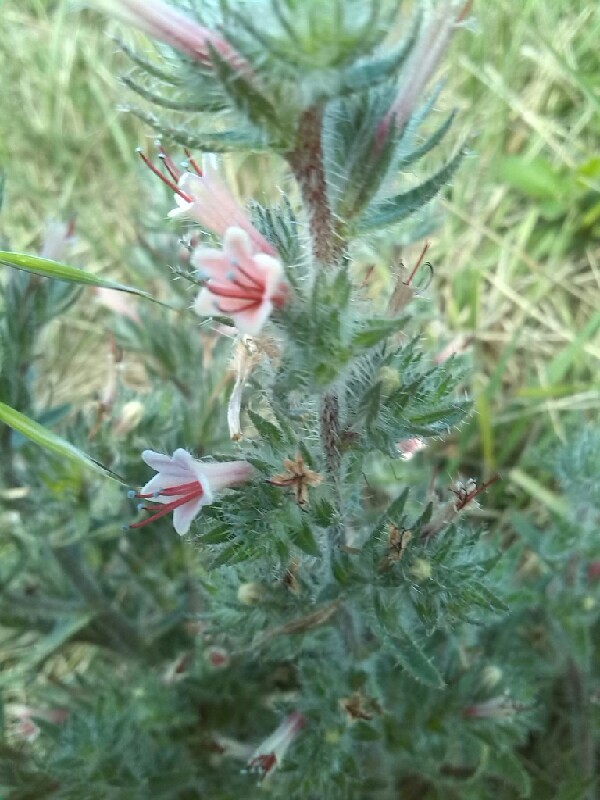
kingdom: Plantae
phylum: Tracheophyta
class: Magnoliopsida
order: Boraginales
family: Boraginaceae
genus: Echium
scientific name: Echium asperrimum
